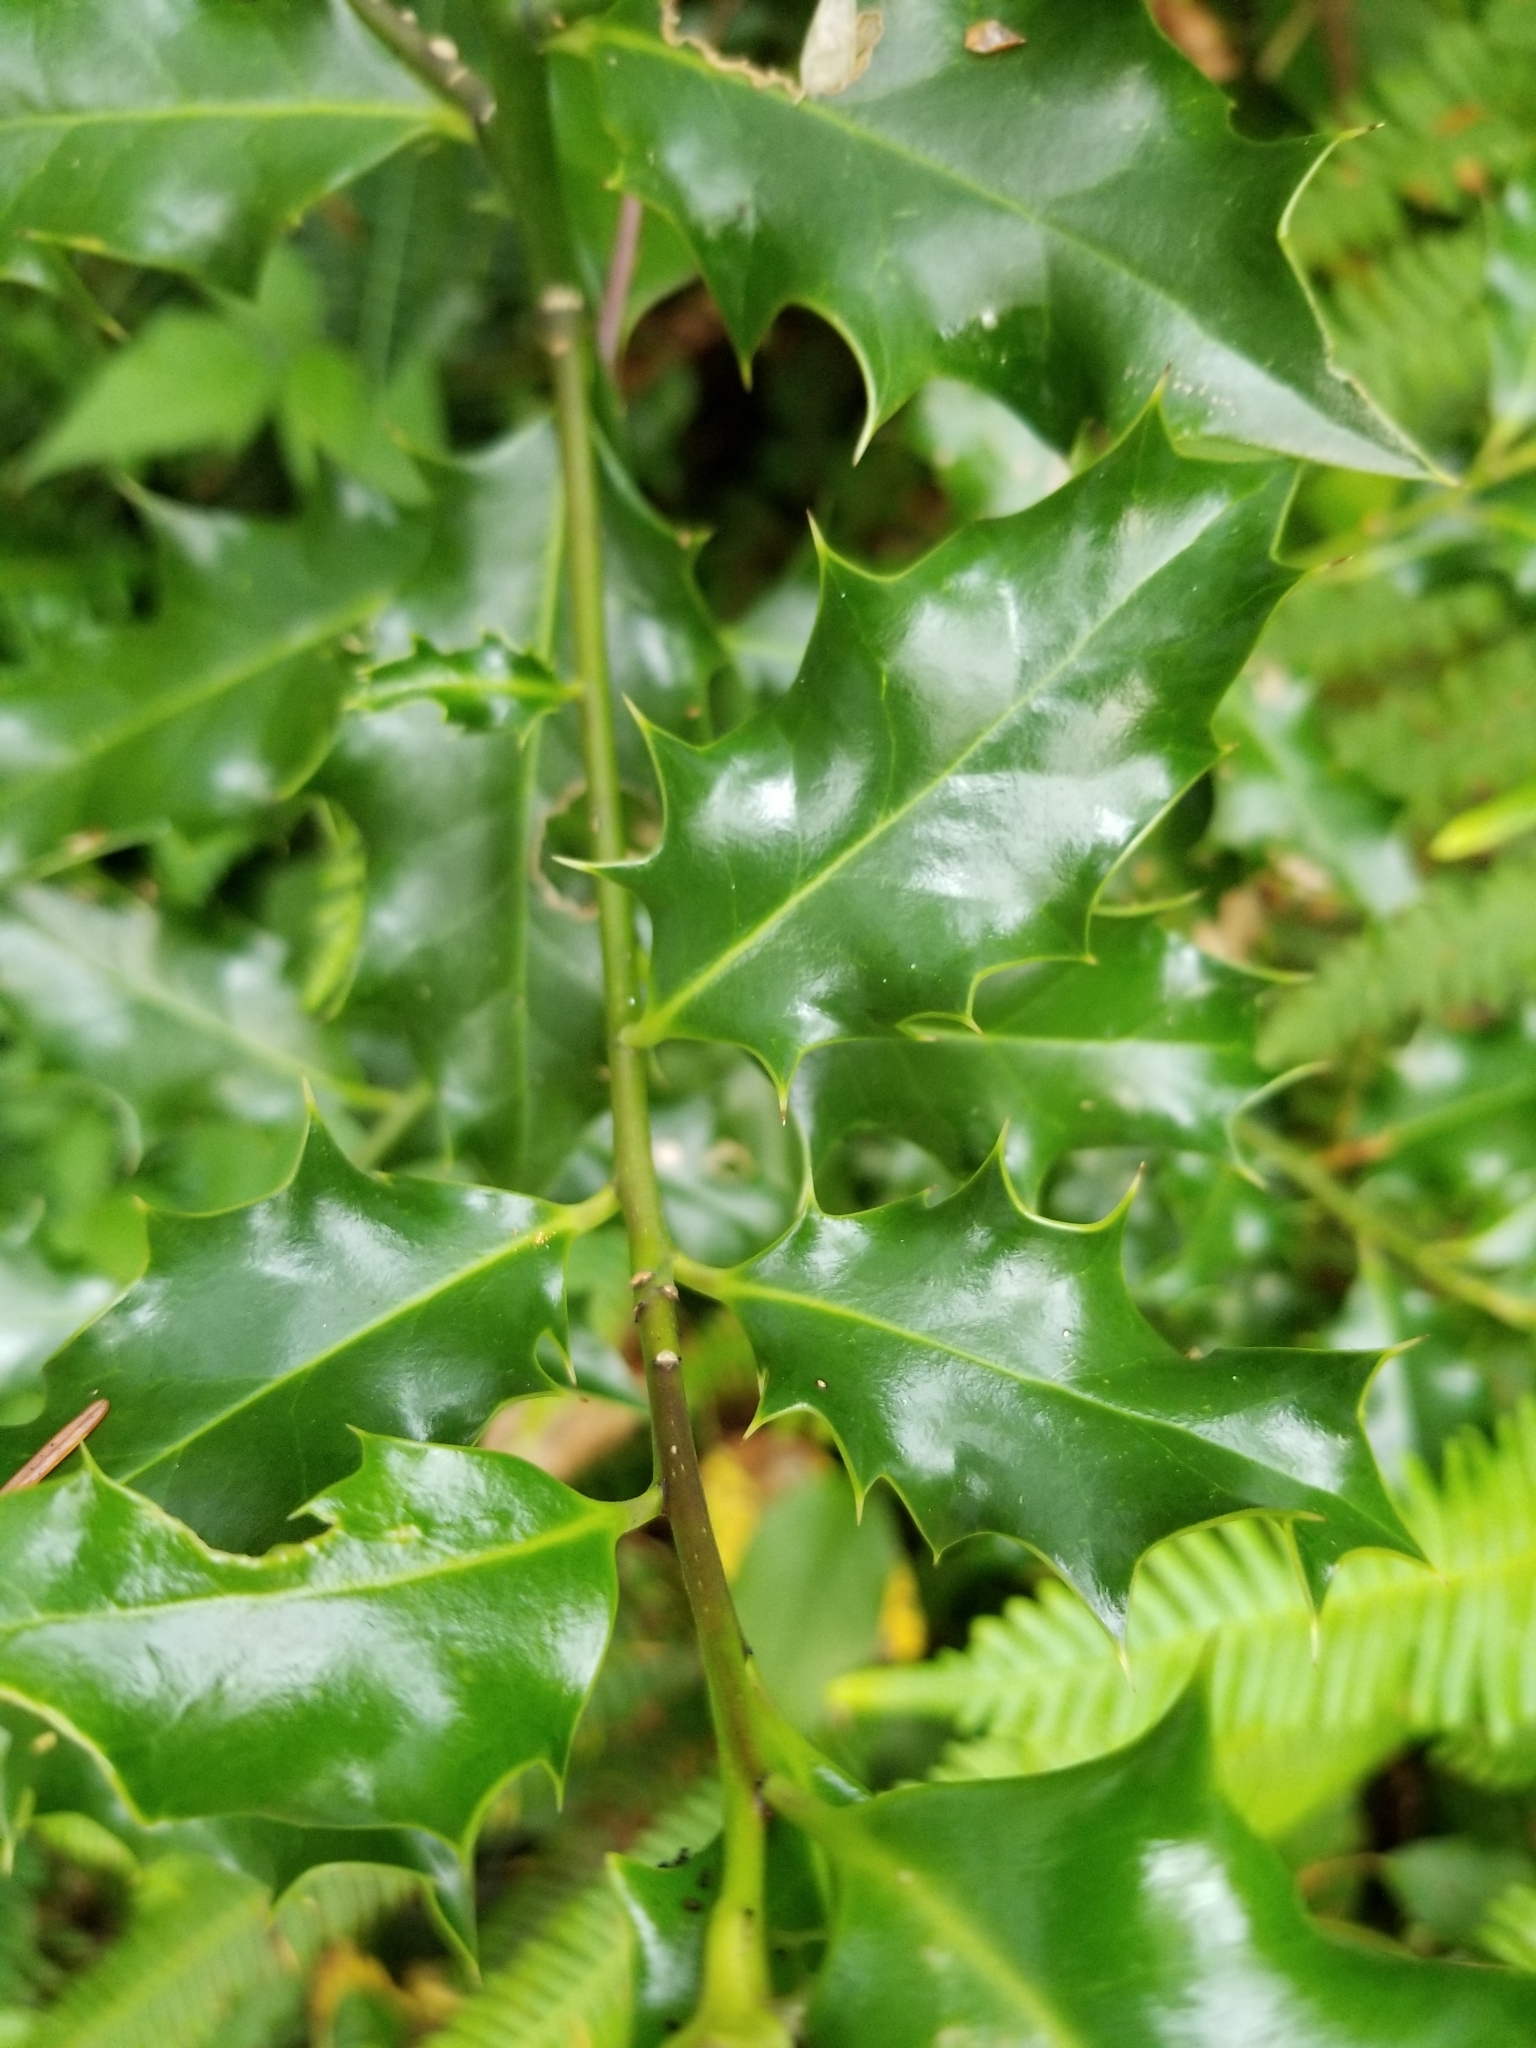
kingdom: Plantae
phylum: Tracheophyta
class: Magnoliopsida
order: Aquifoliales
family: Aquifoliaceae
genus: Ilex
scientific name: Ilex aquifolium
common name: English holly
